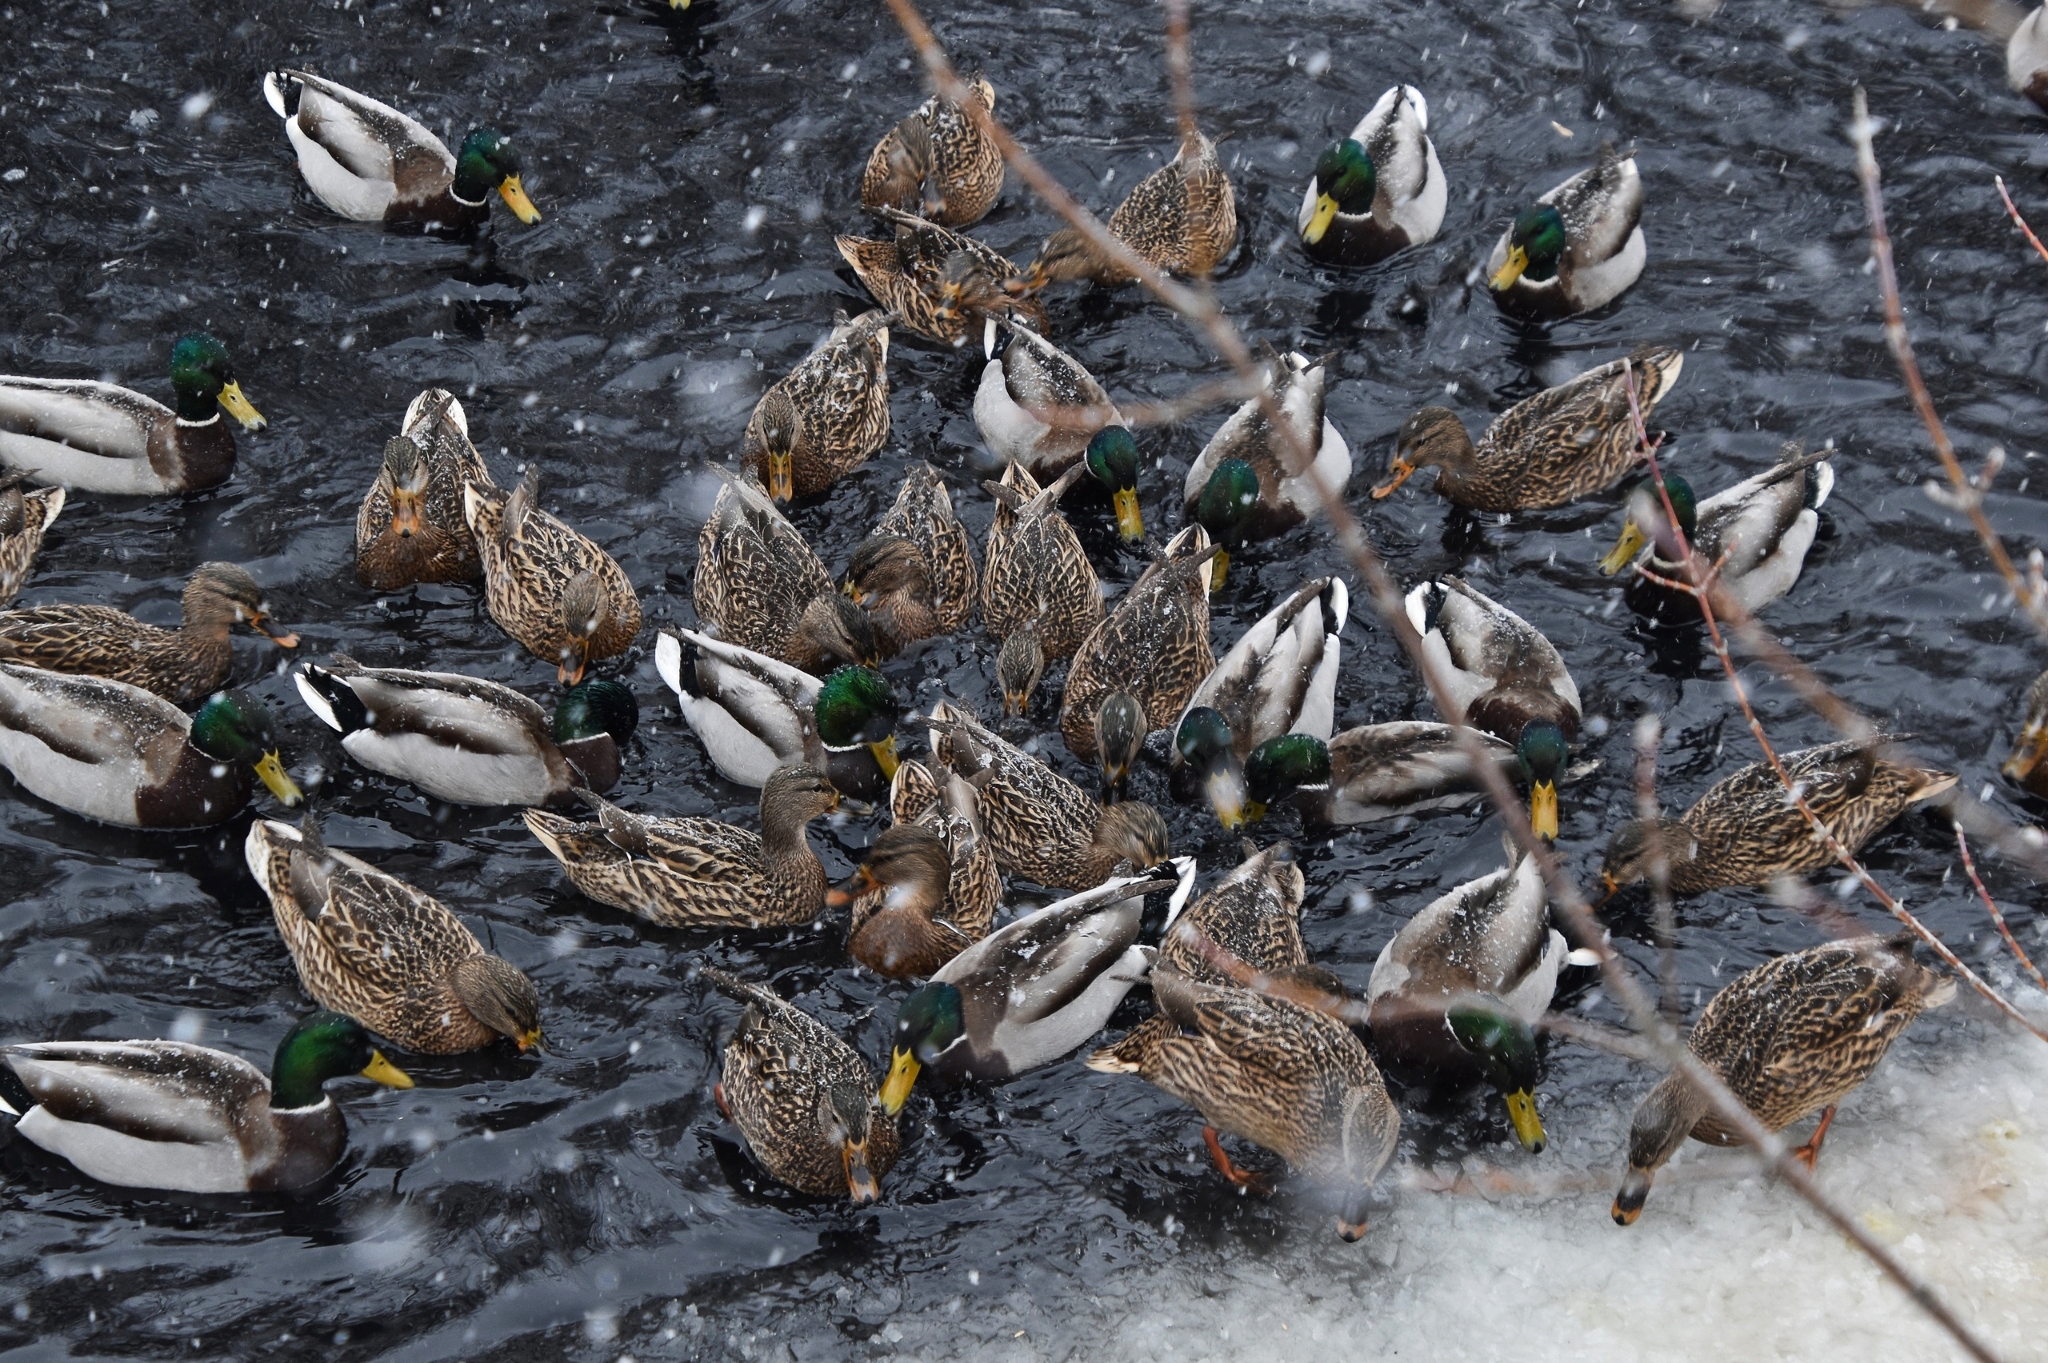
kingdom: Animalia
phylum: Chordata
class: Aves
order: Anseriformes
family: Anatidae
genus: Anas
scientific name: Anas platyrhynchos
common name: Mallard
